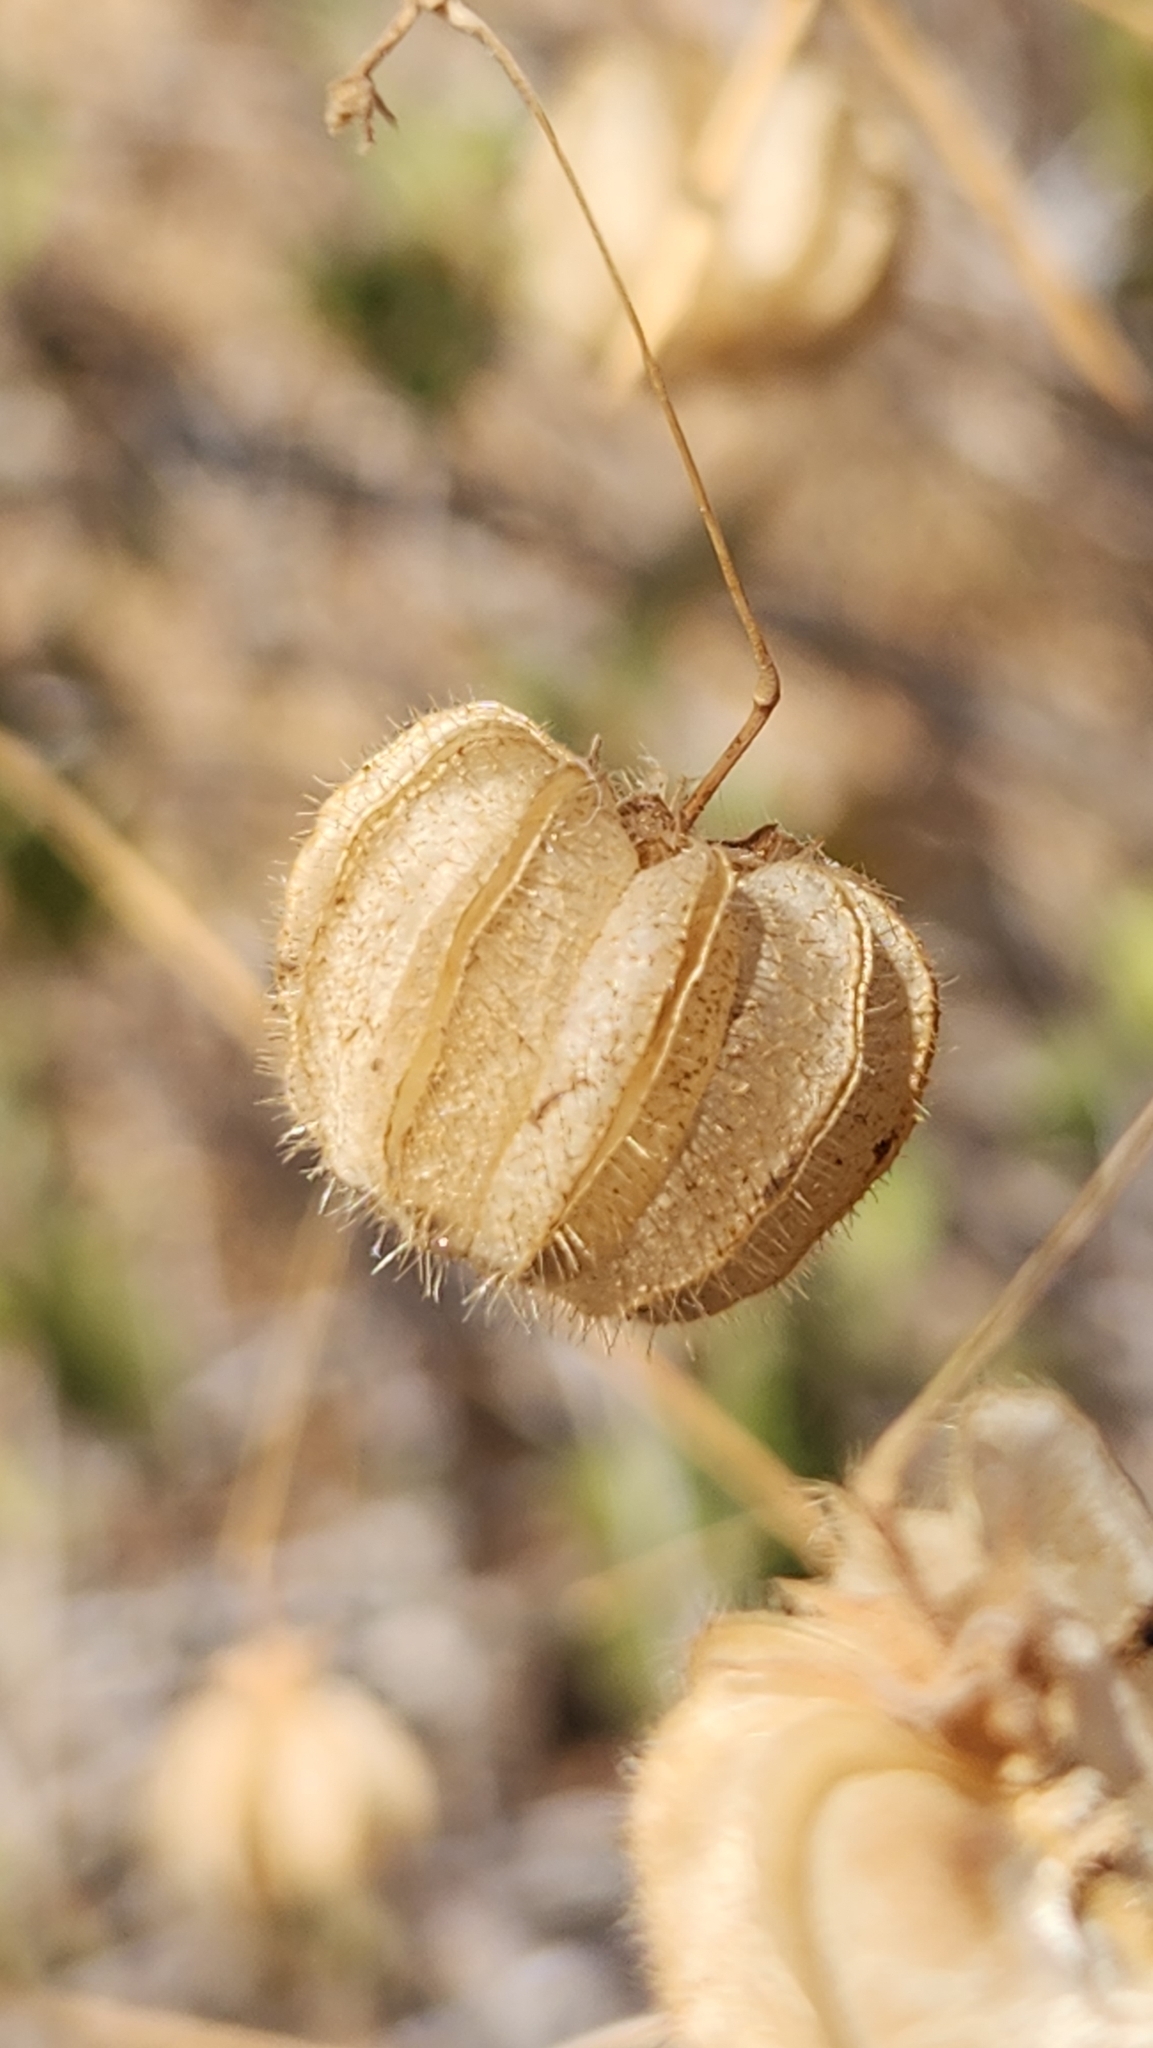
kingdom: Plantae
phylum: Tracheophyta
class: Magnoliopsida
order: Malvales
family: Malvaceae
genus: Herissantia
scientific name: Herissantia crispa
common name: Bladdermallow
